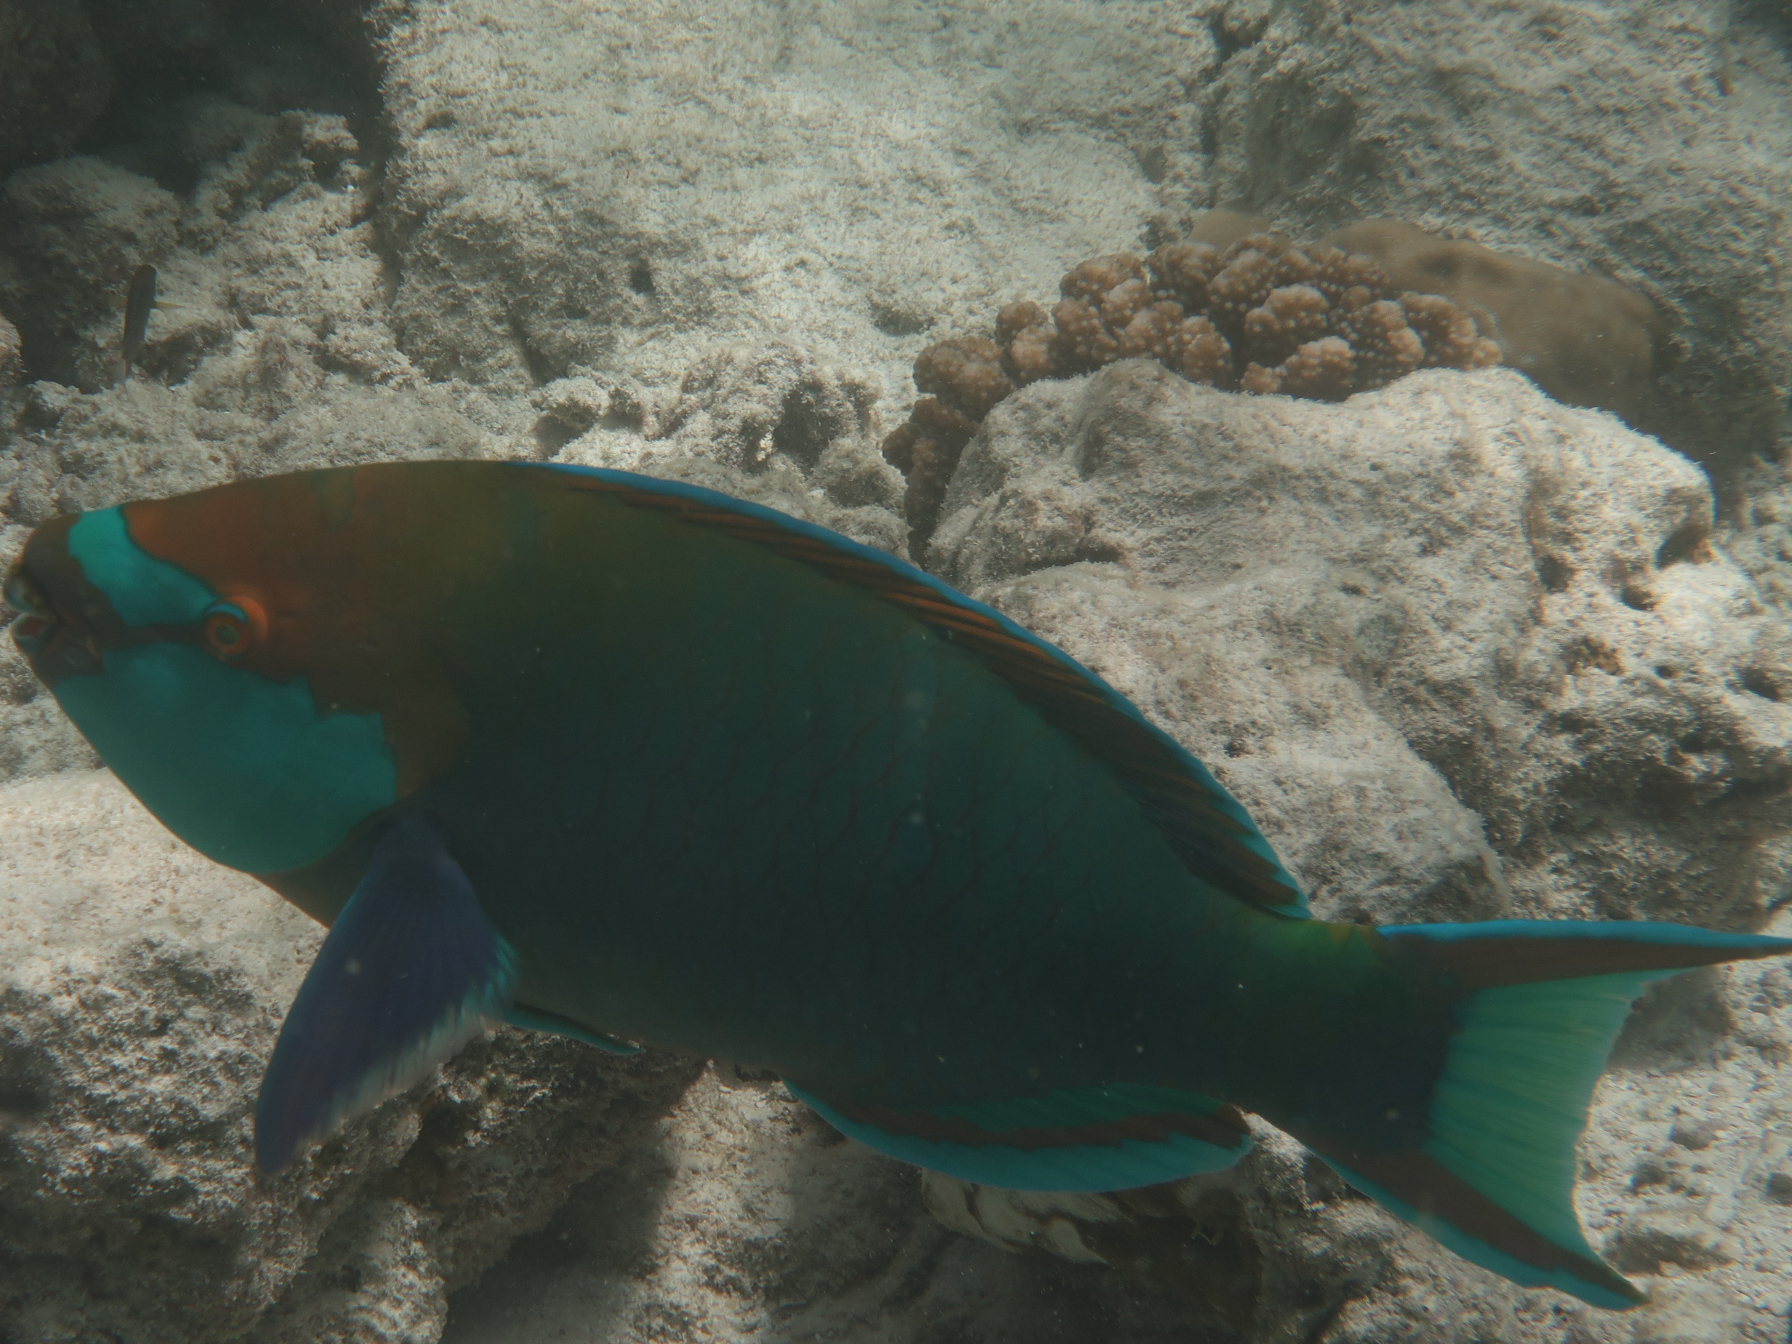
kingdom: Animalia
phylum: Chordata
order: Perciformes
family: Scaridae
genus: Scarus
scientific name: Scarus prasiognathos
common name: Singapore parrotfish
